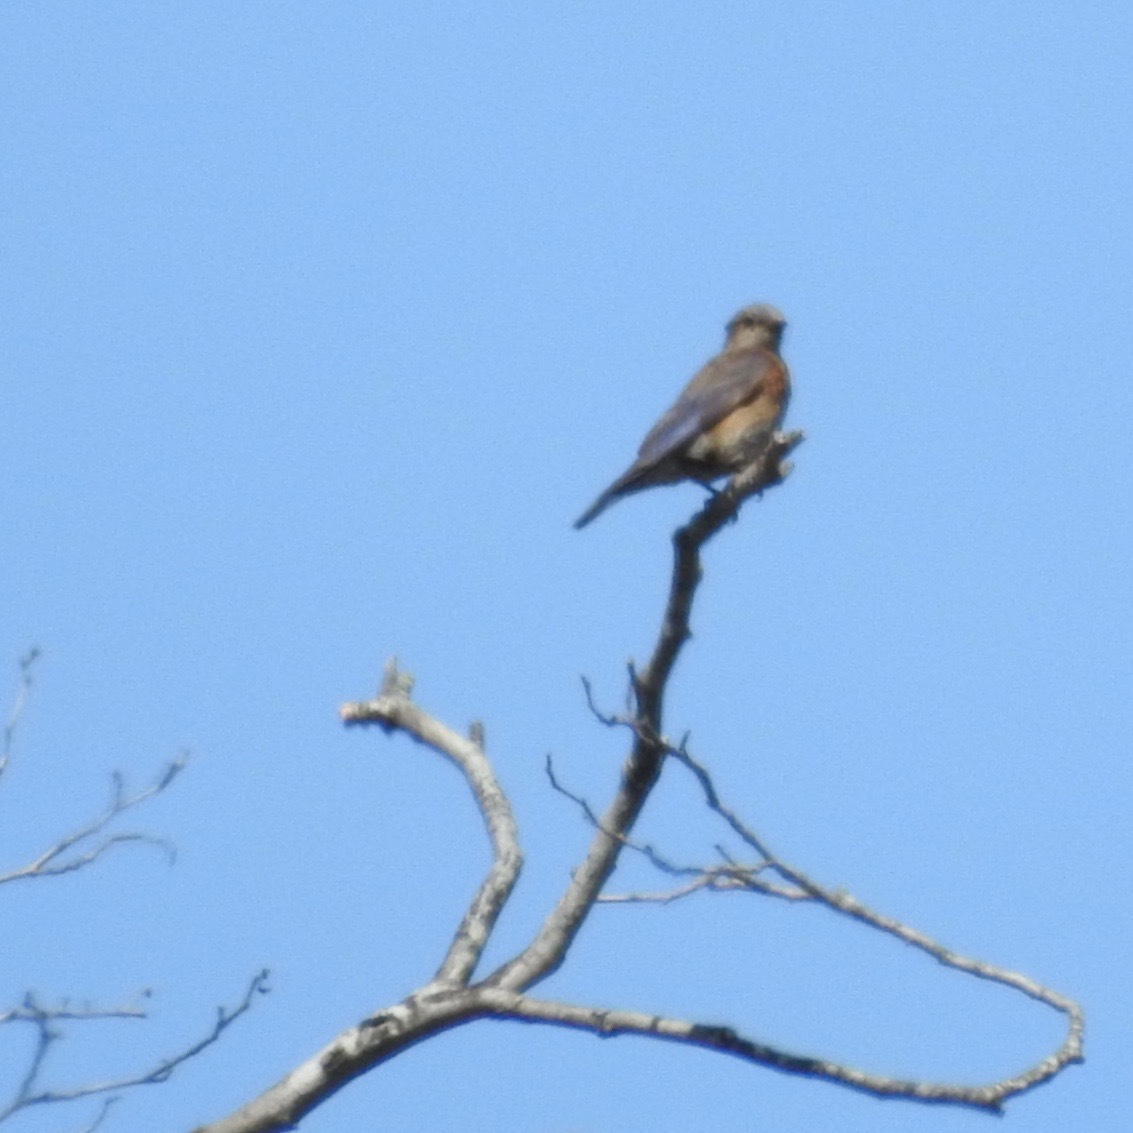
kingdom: Animalia
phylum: Chordata
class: Aves
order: Passeriformes
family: Turdidae
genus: Sialia
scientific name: Sialia mexicana
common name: Western bluebird
